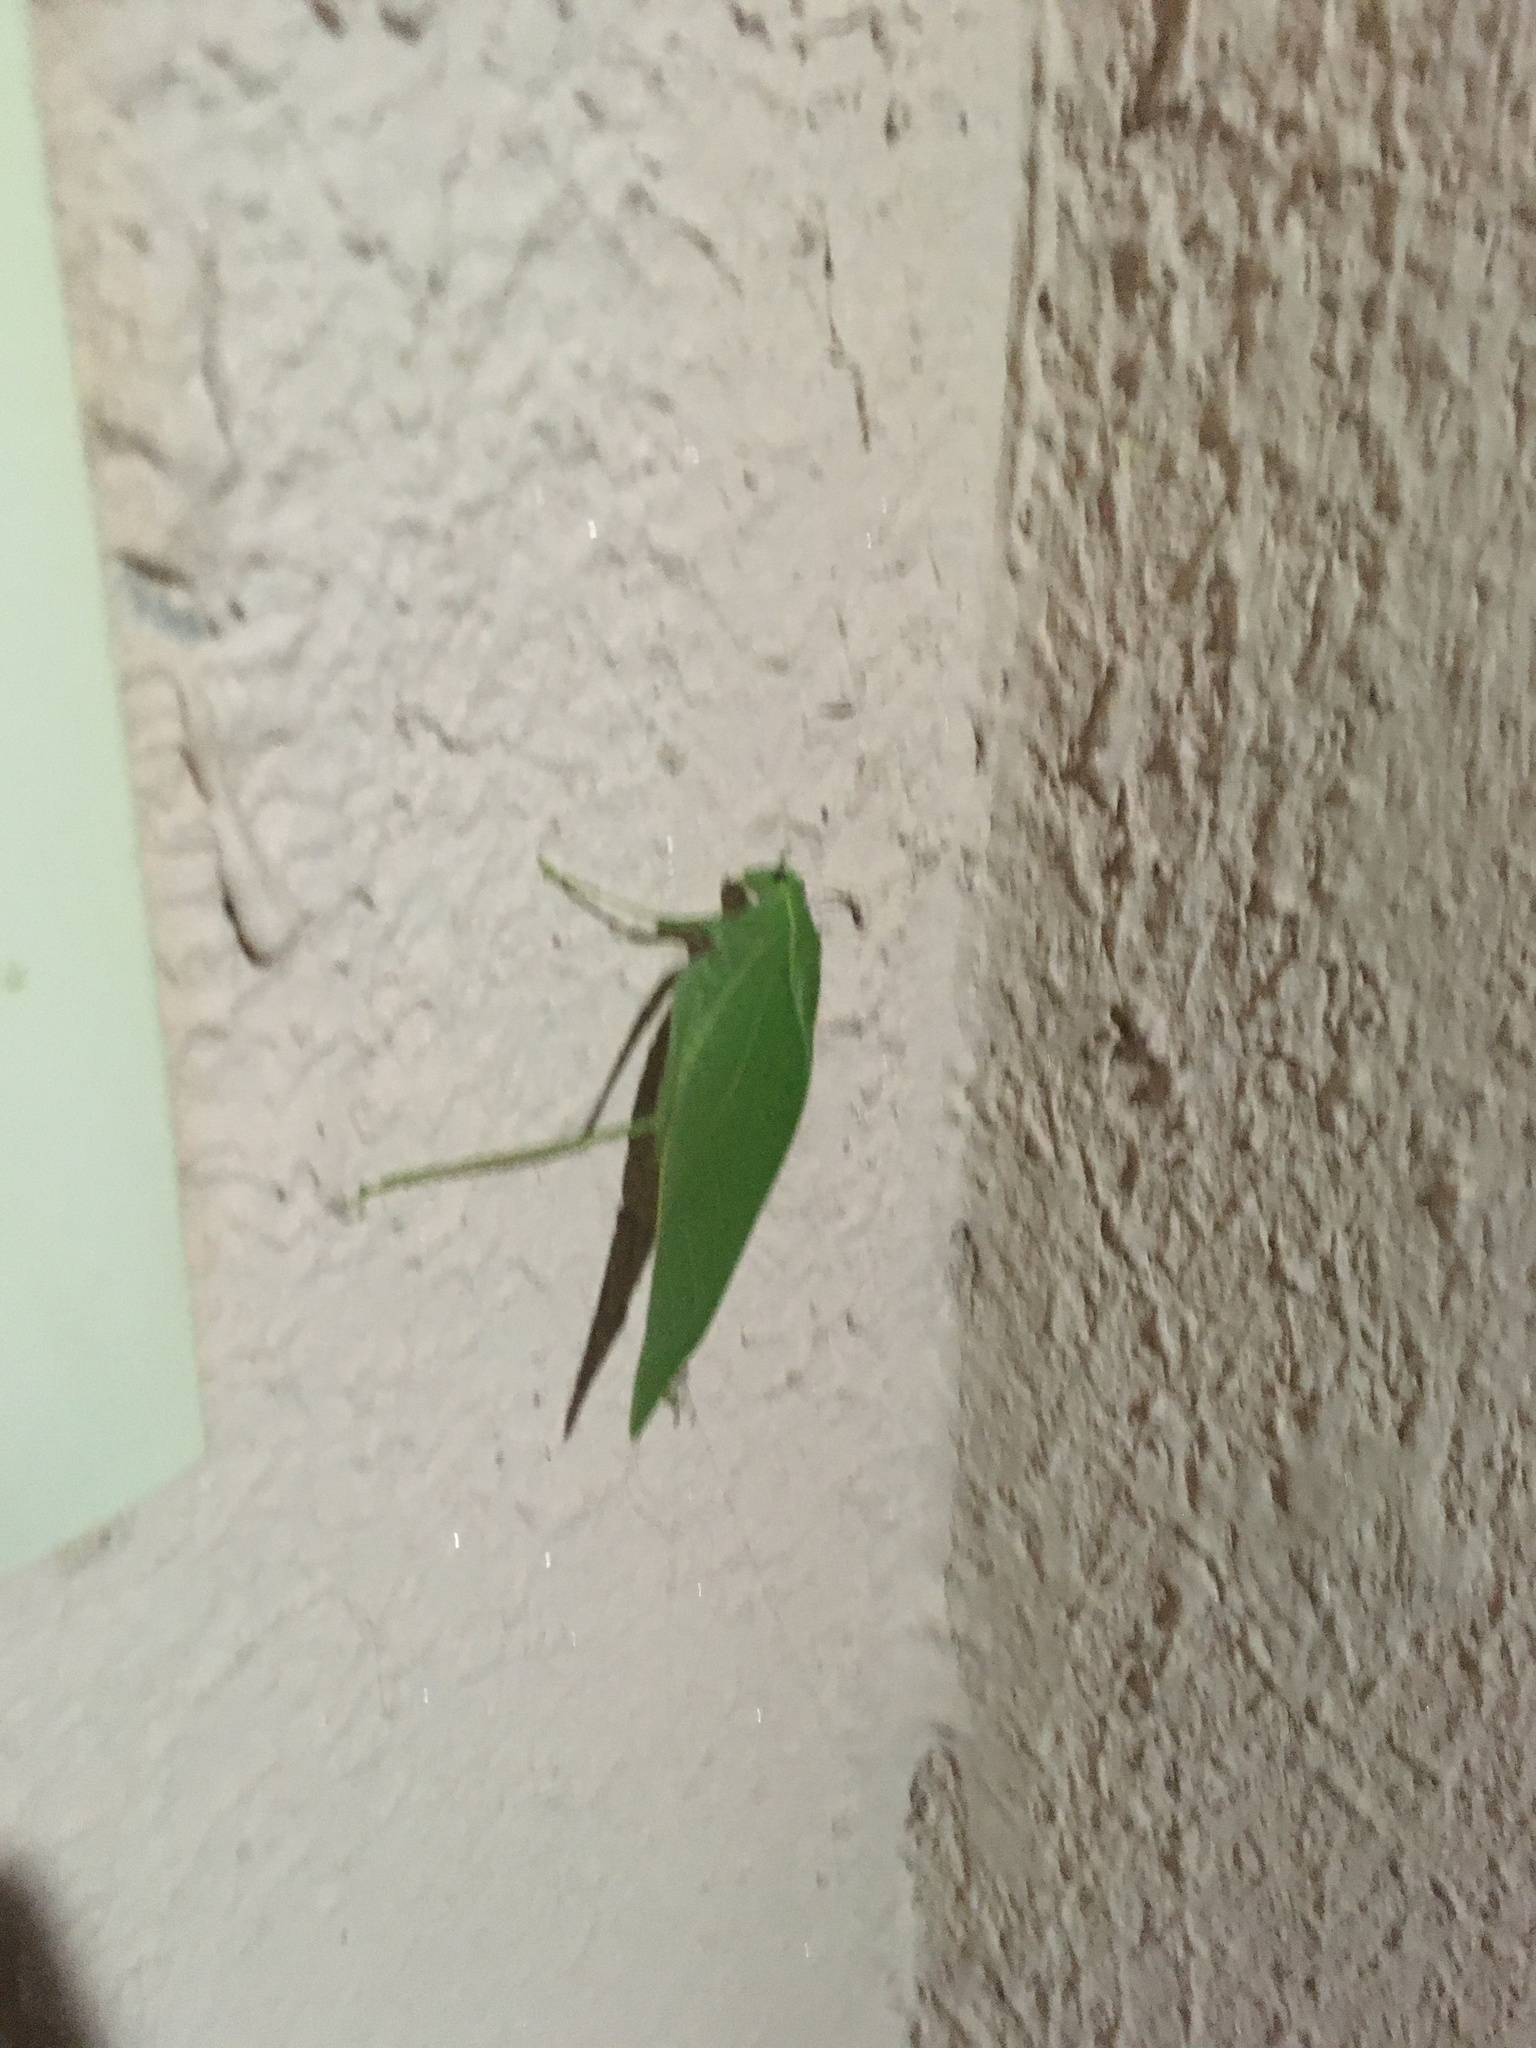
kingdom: Animalia
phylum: Arthropoda
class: Insecta
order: Orthoptera
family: Tettigoniidae
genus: Microcentrum
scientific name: Microcentrum rhombifolium
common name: Broad-winged katydid
